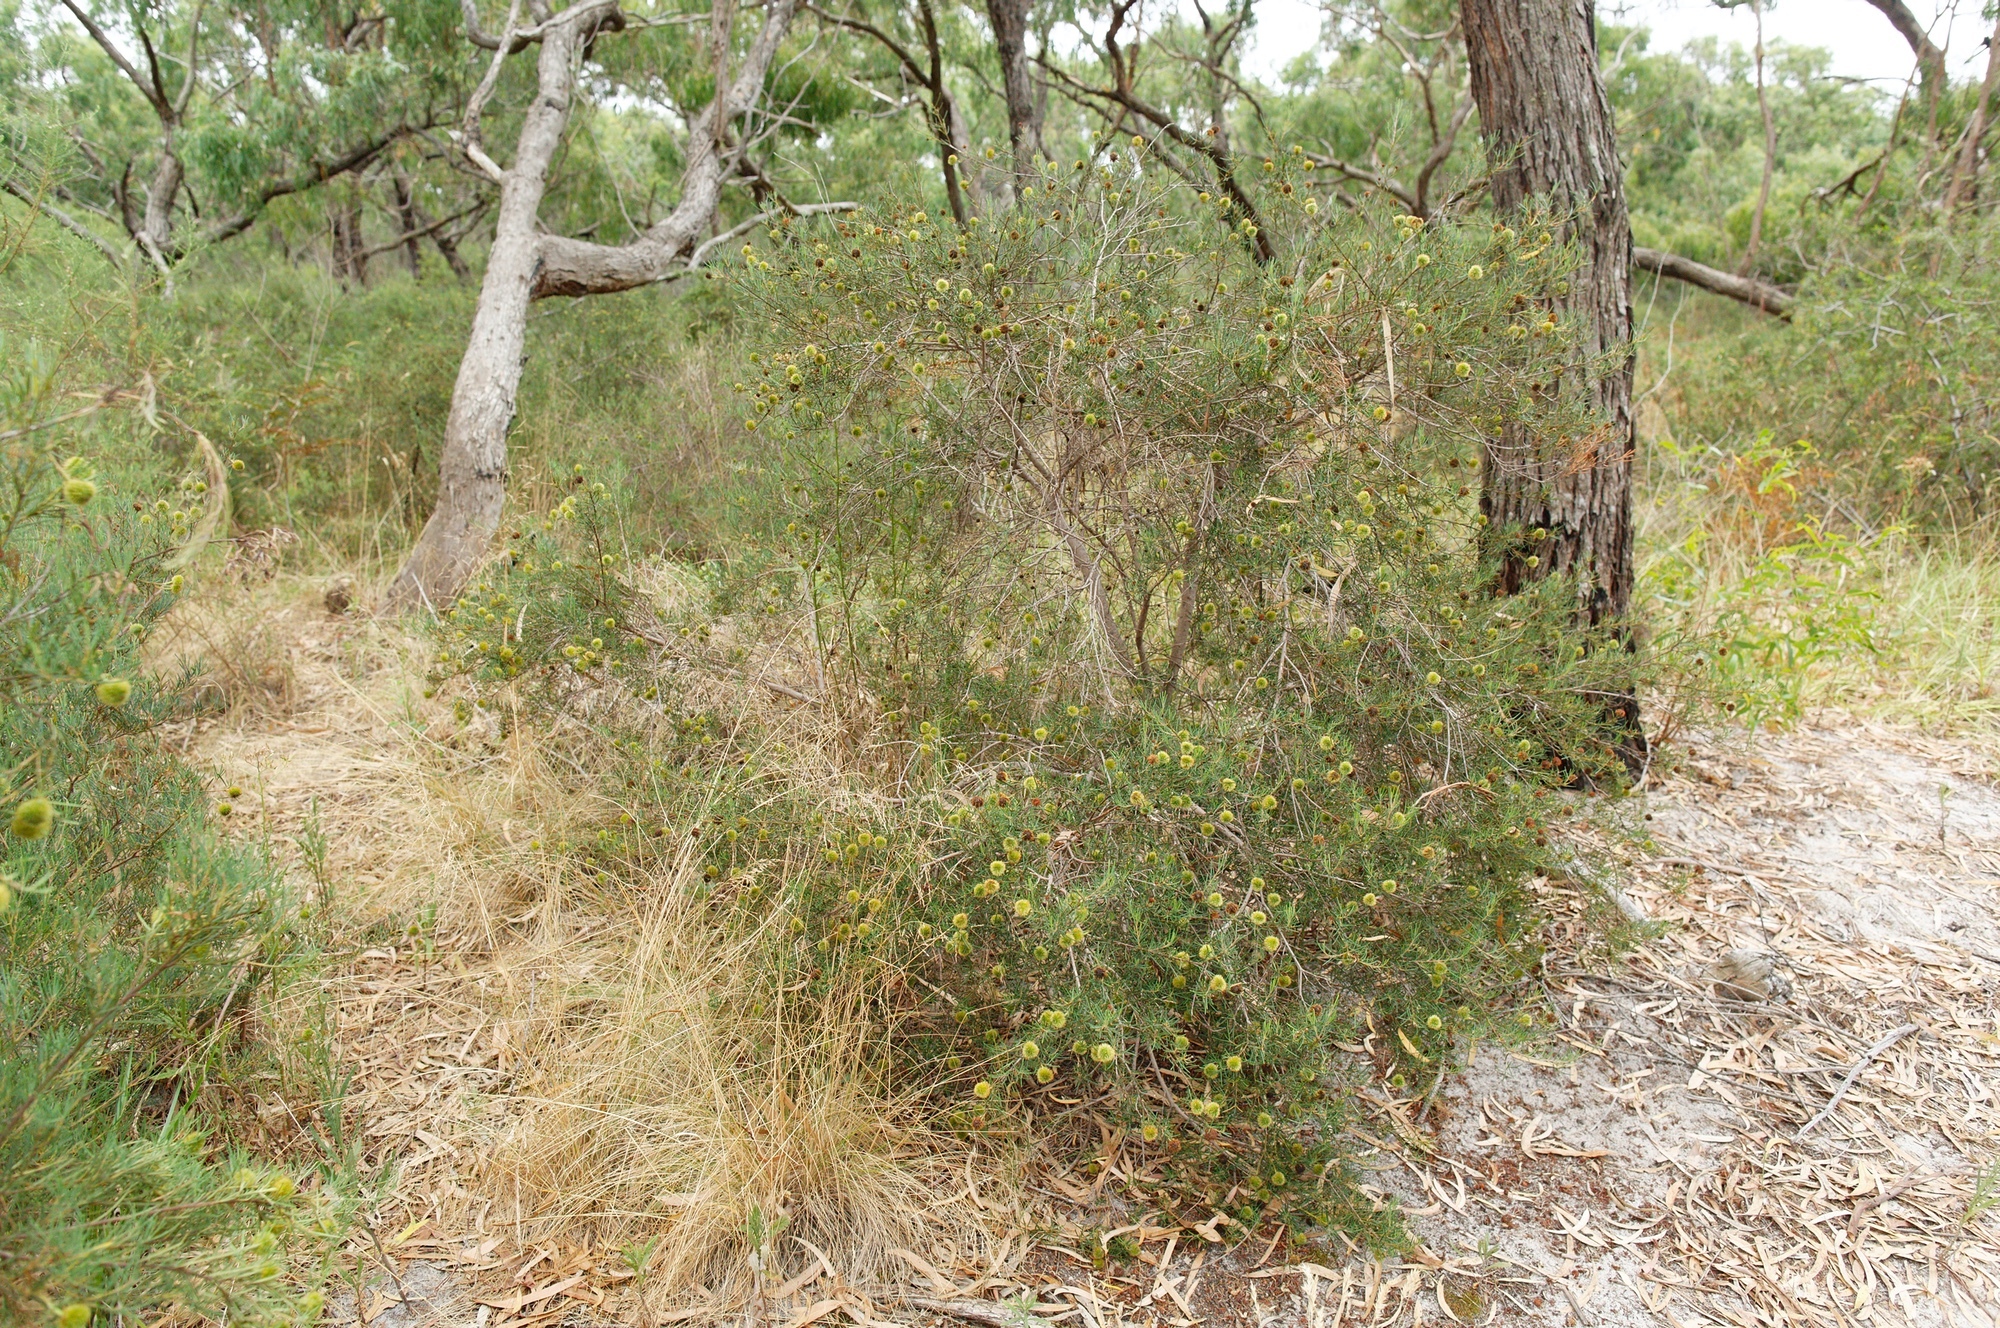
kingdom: Plantae
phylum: Tracheophyta
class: Magnoliopsida
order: Malpighiales
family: Euphorbiaceae
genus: Ricinocarpos
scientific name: Ricinocarpos pinifolius
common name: Weddingbush
